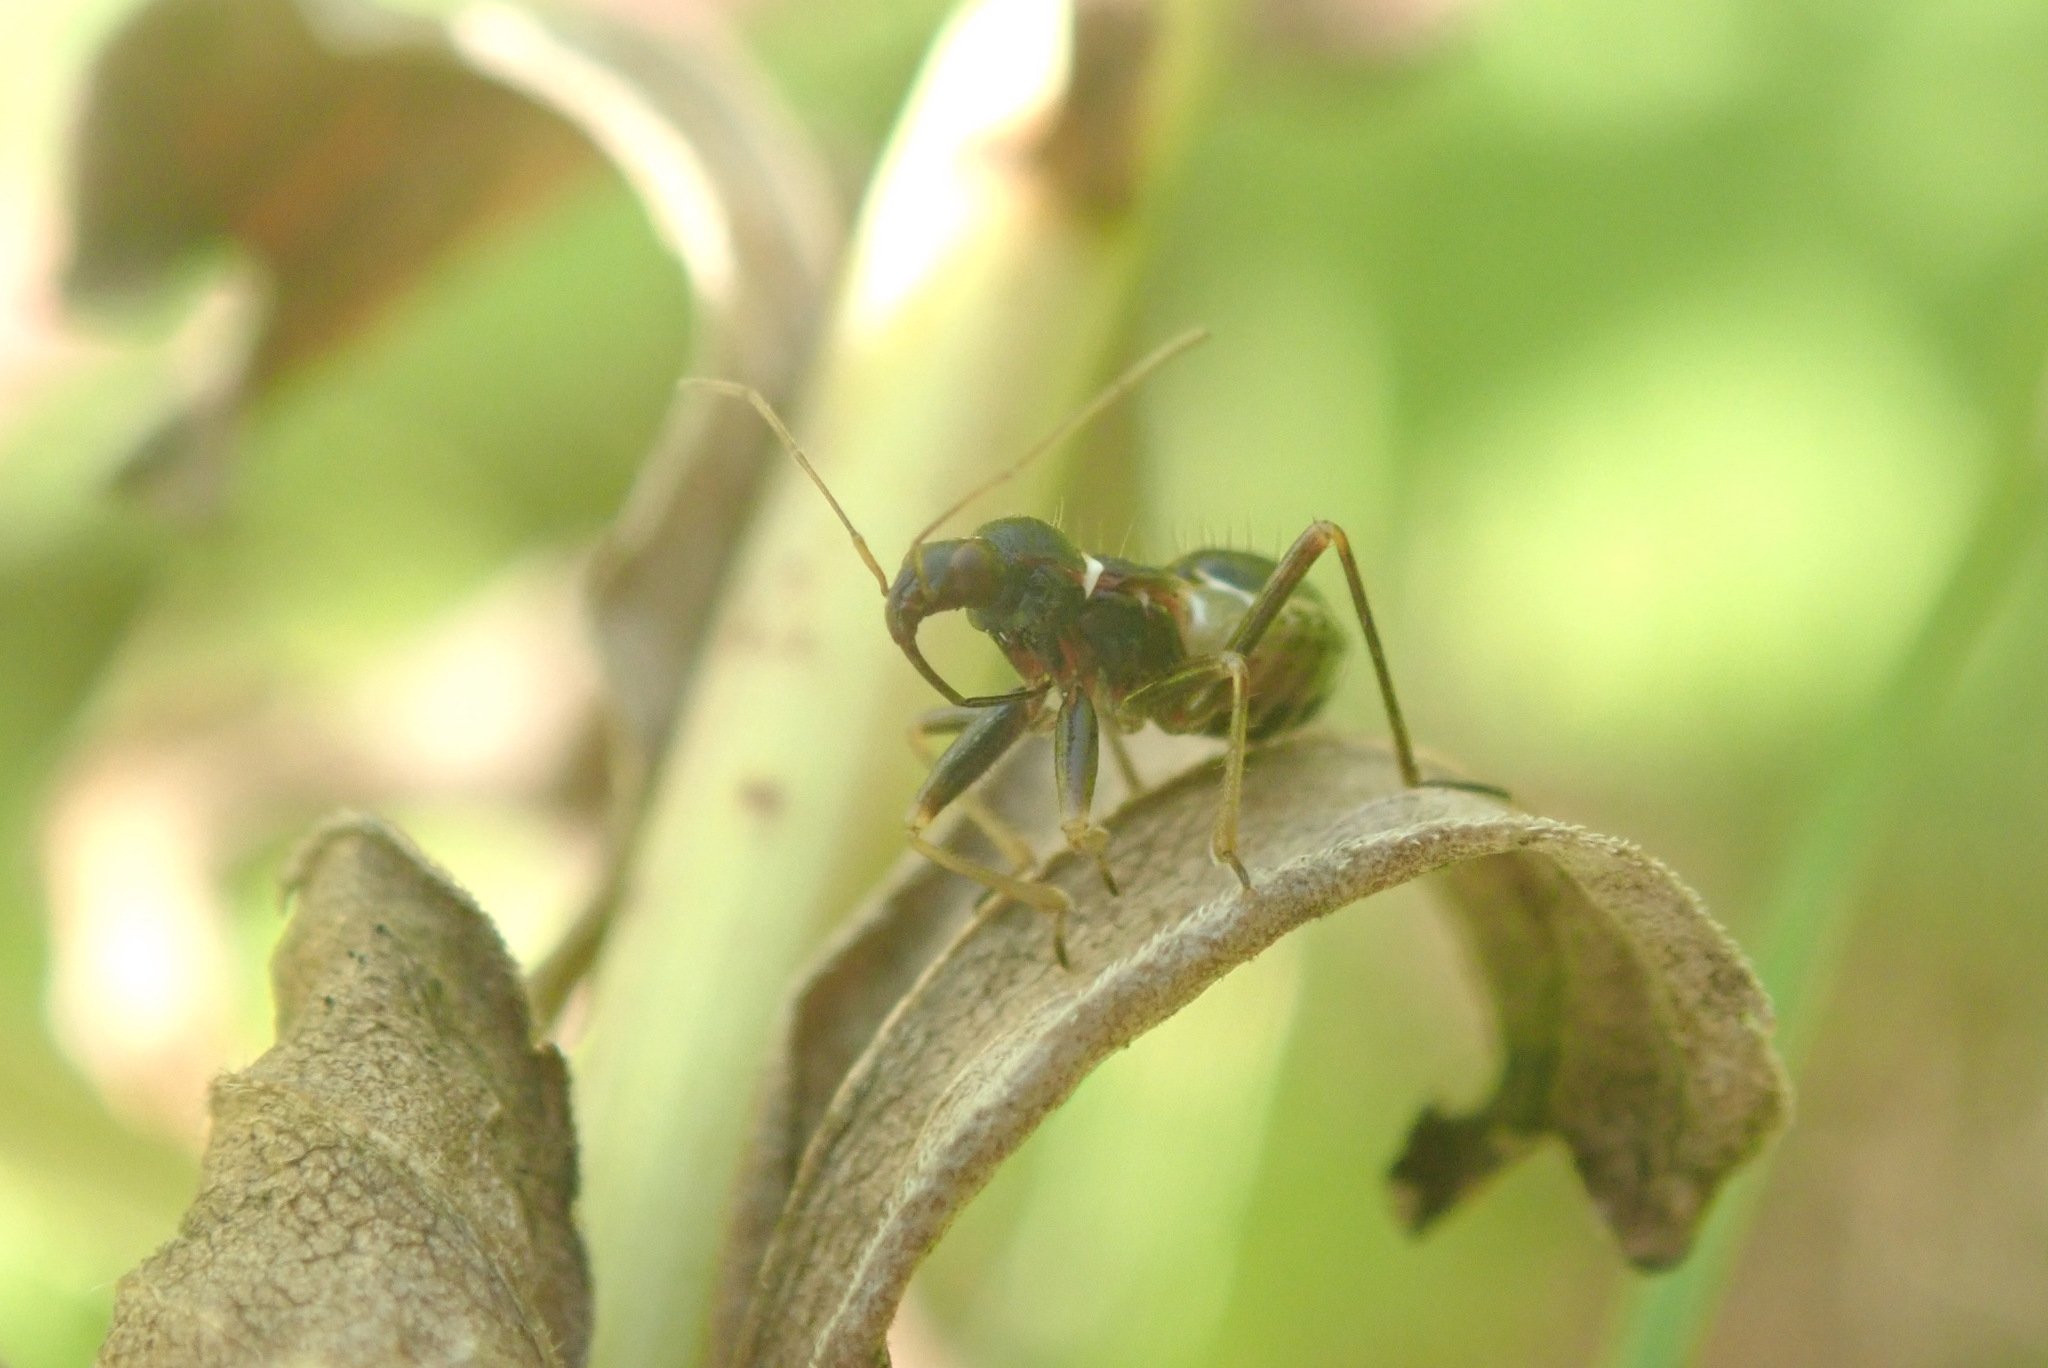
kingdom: Animalia
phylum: Arthropoda
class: Insecta
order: Hemiptera
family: Nabidae
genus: Himacerus
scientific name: Himacerus mirmicoides
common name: Ant damsel bug
